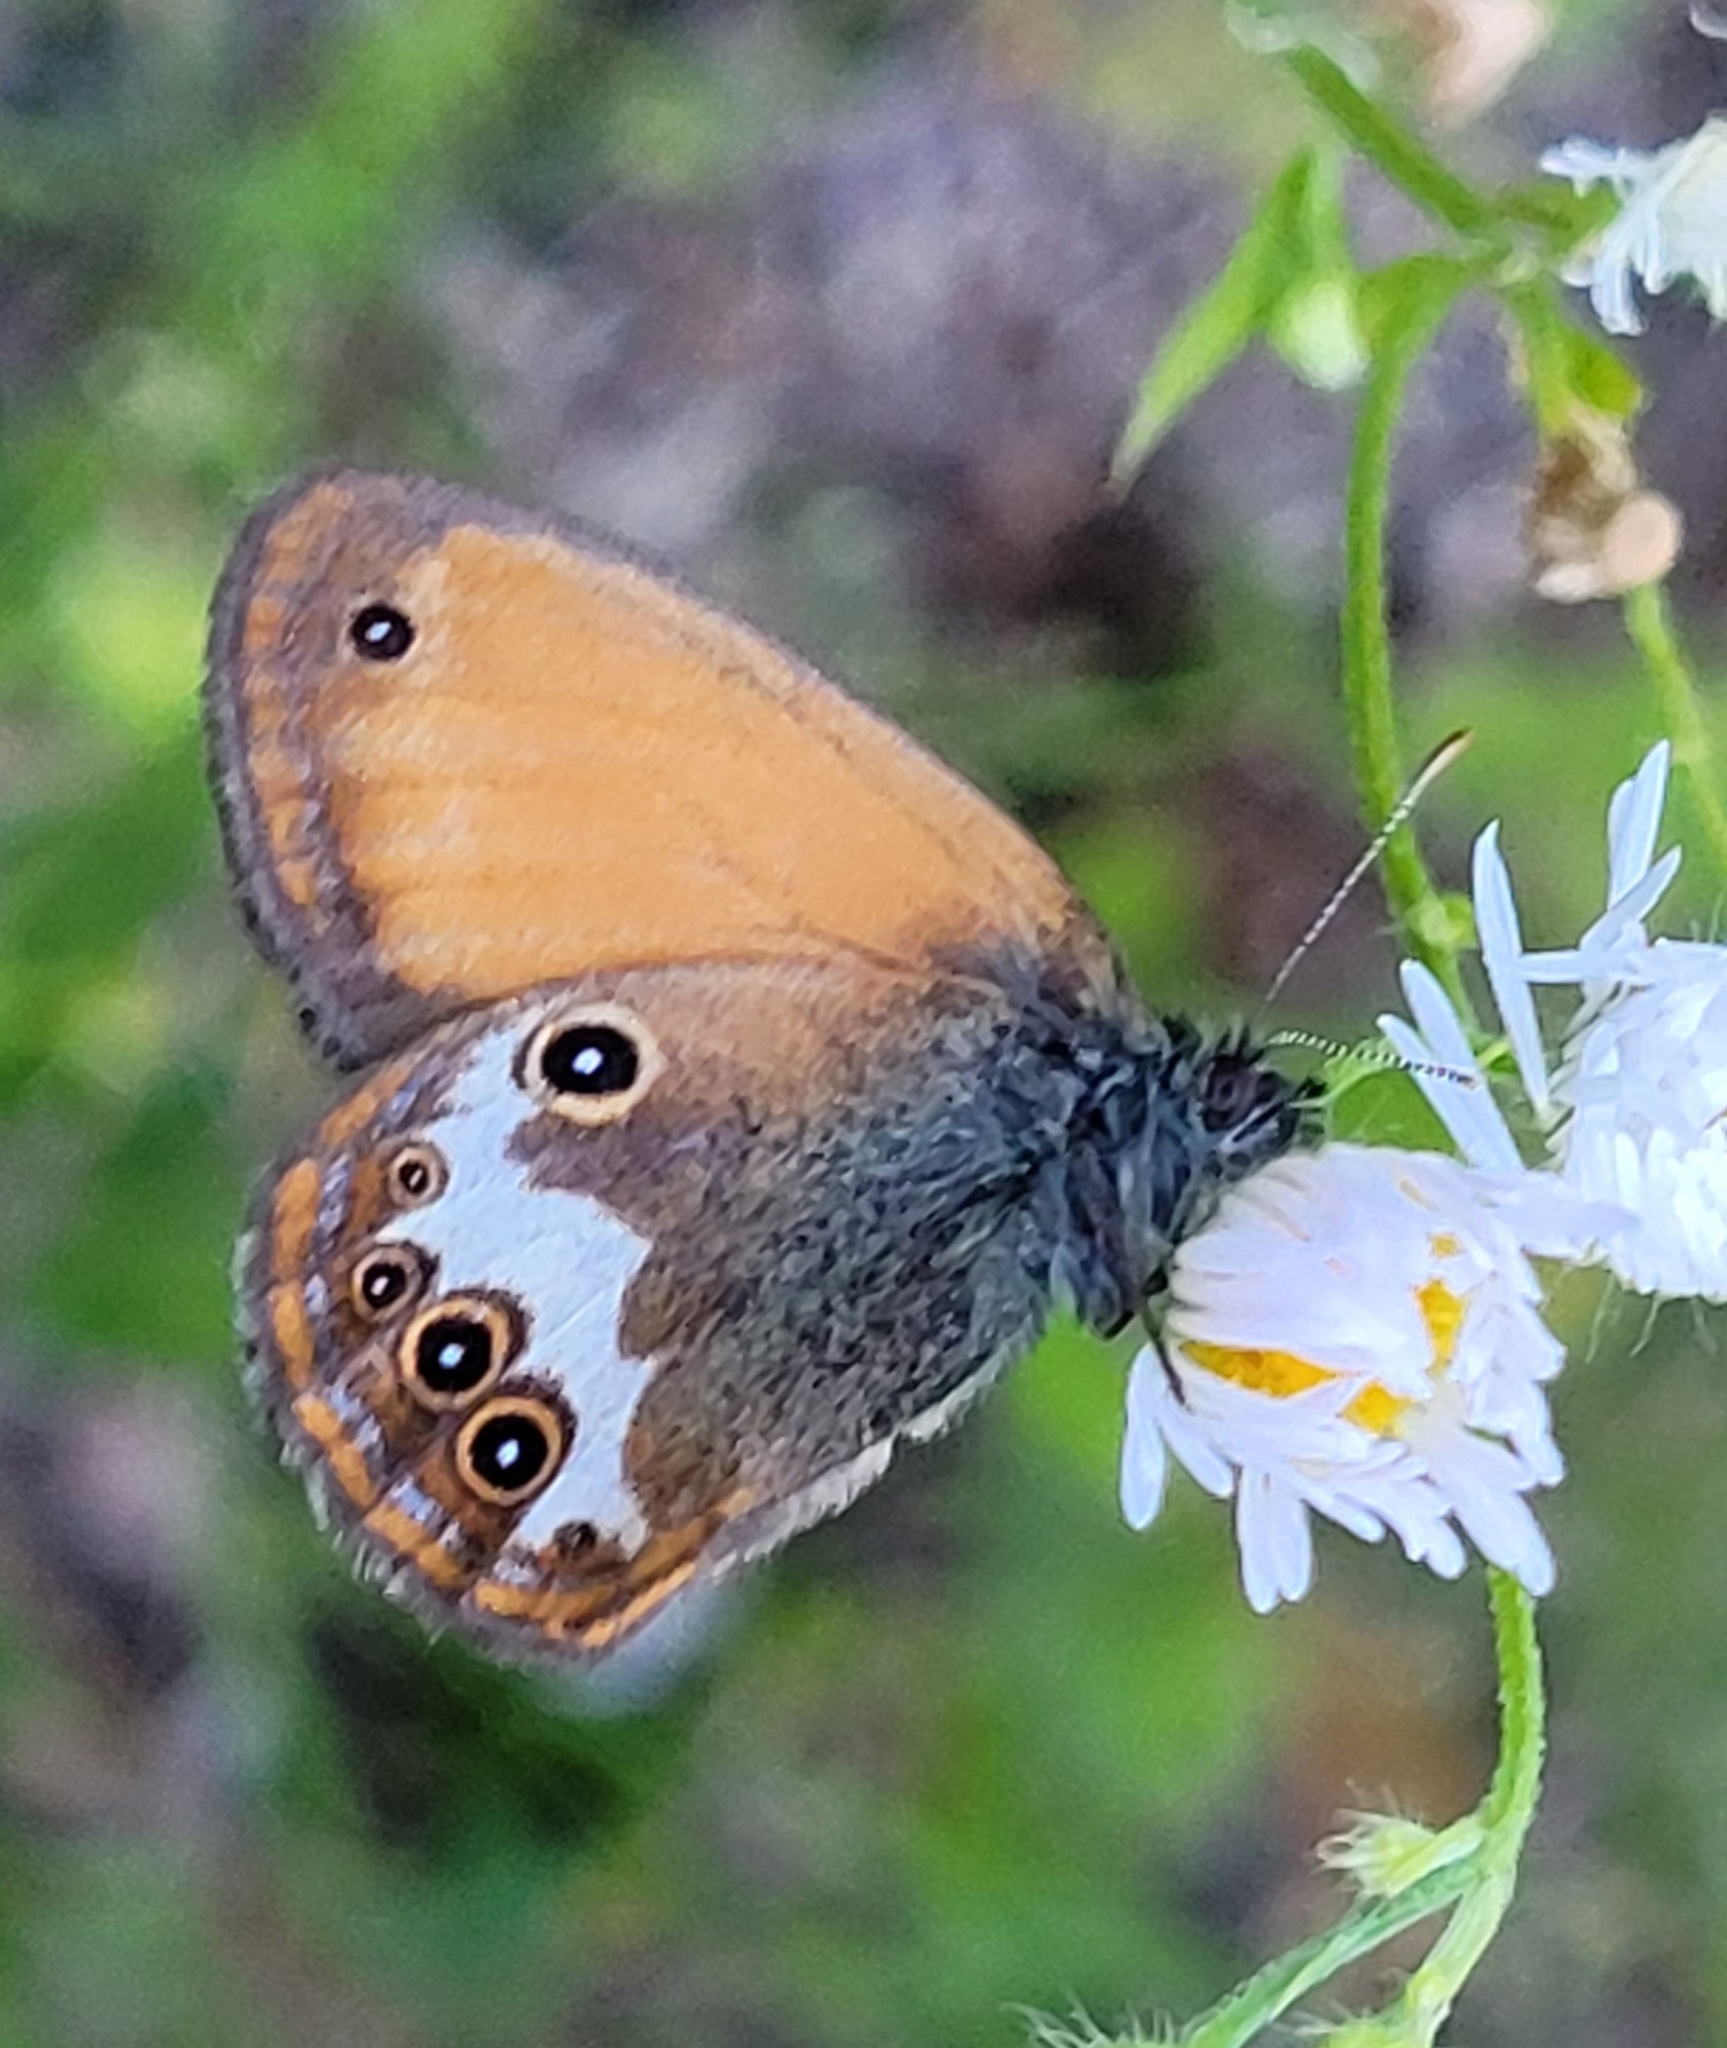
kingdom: Animalia
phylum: Arthropoda
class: Insecta
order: Lepidoptera
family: Nymphalidae
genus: Coenonympha
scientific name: Coenonympha arcania
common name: Pearly heath
